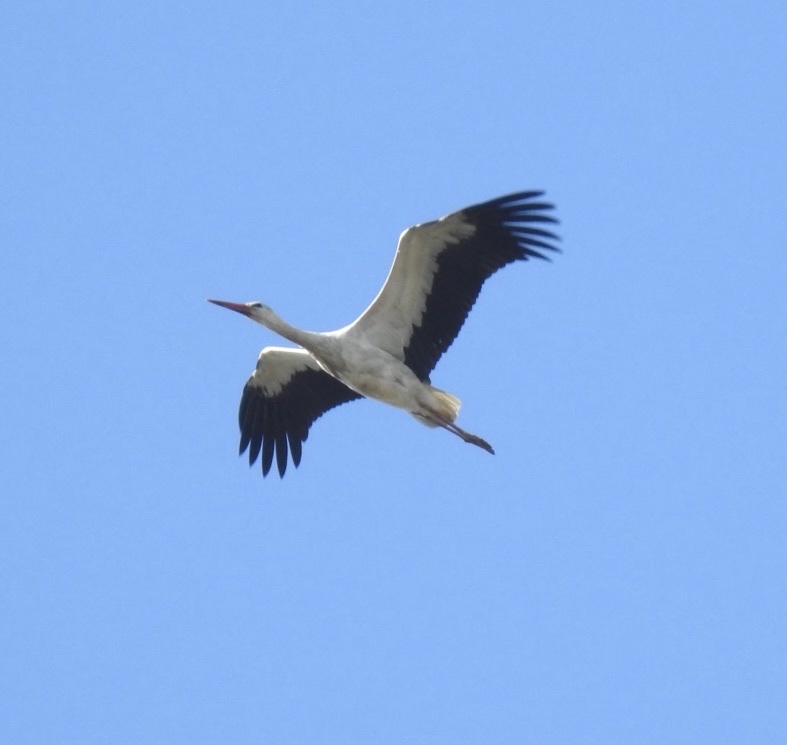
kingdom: Animalia
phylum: Chordata
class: Aves
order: Ciconiiformes
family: Ciconiidae
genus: Ciconia
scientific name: Ciconia ciconia
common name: White stork
